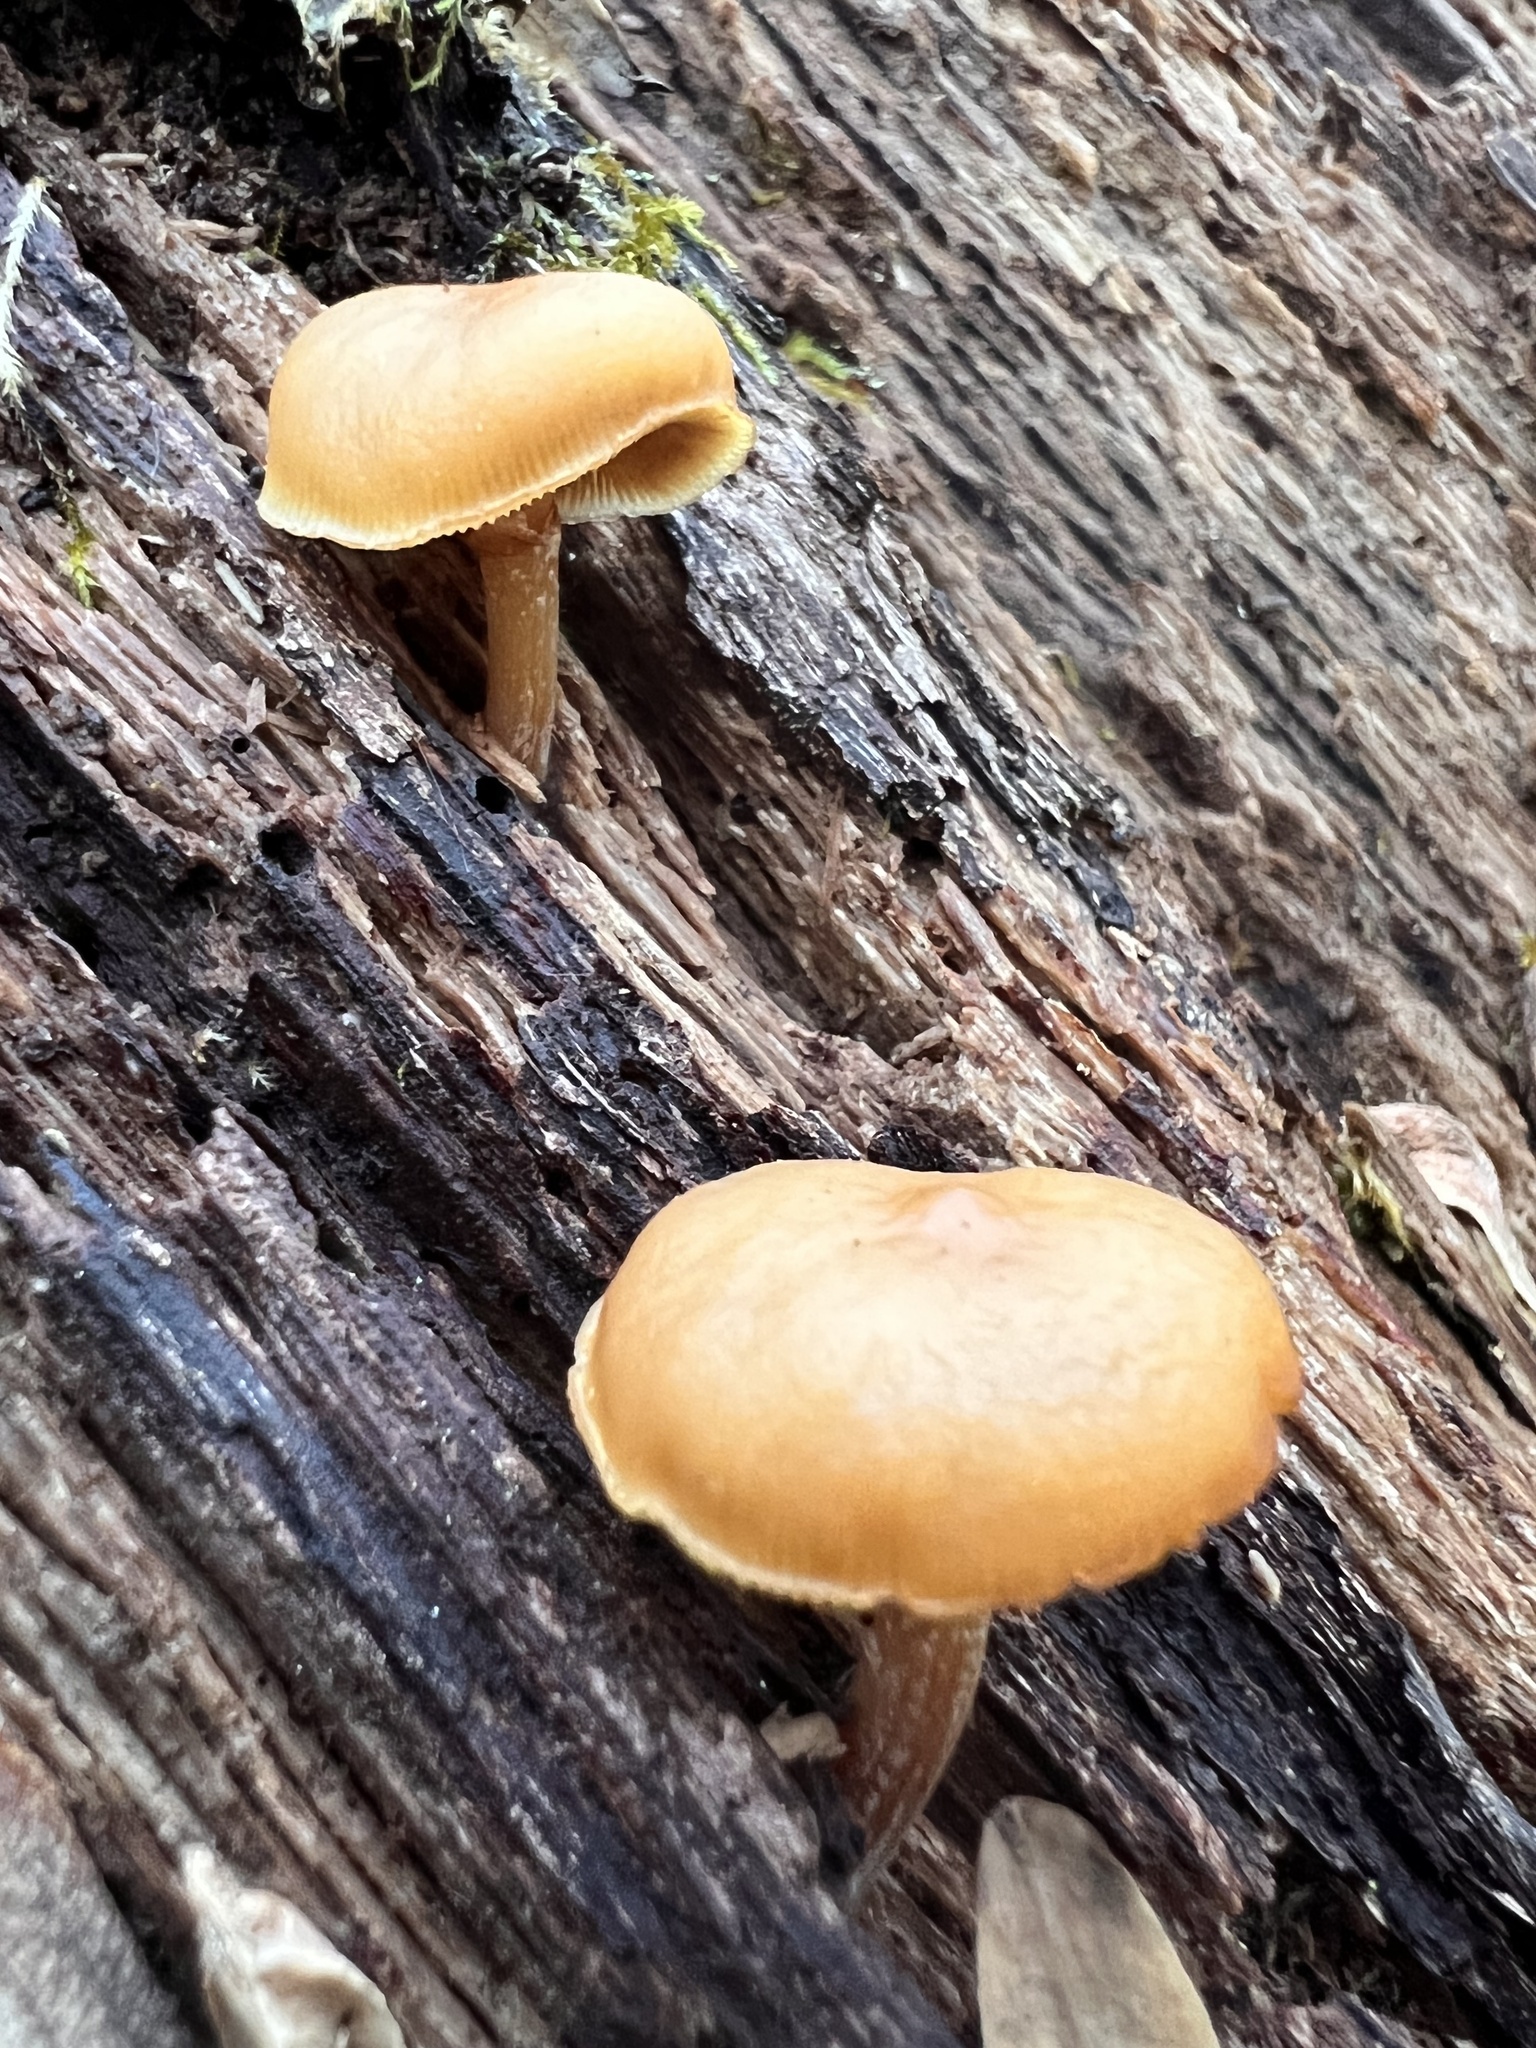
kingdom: Fungi
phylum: Basidiomycota
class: Agaricomycetes
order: Agaricales
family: Hymenogastraceae
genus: Galerina
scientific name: Galerina marginata
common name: Funeral bell
